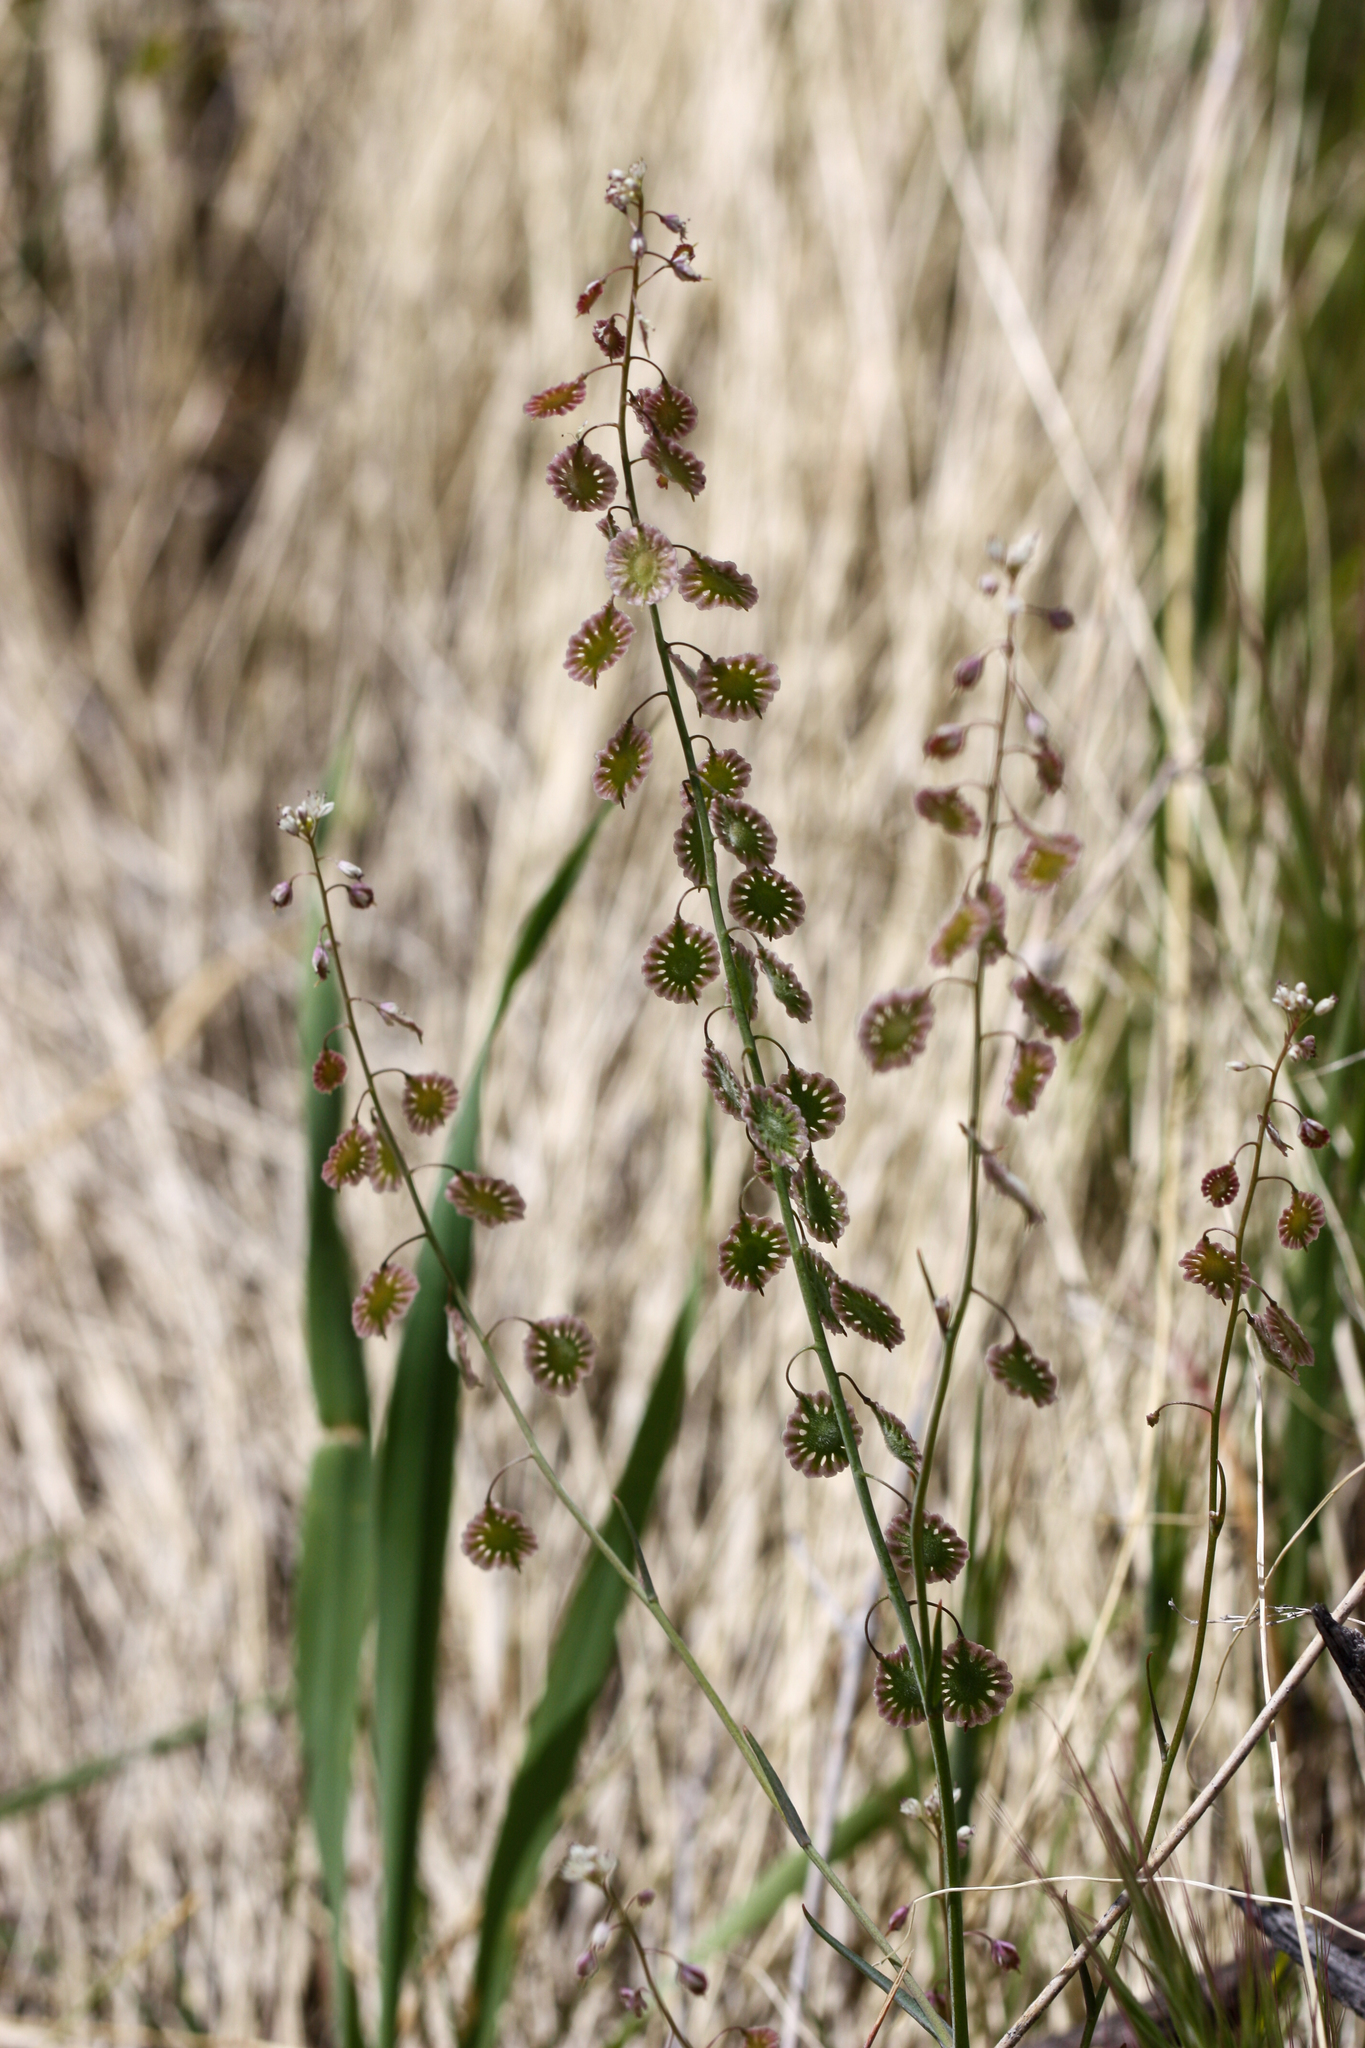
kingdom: Plantae
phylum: Tracheophyta
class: Magnoliopsida
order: Brassicales
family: Brassicaceae
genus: Thysanocarpus
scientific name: Thysanocarpus curvipes
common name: Sand fringepod
